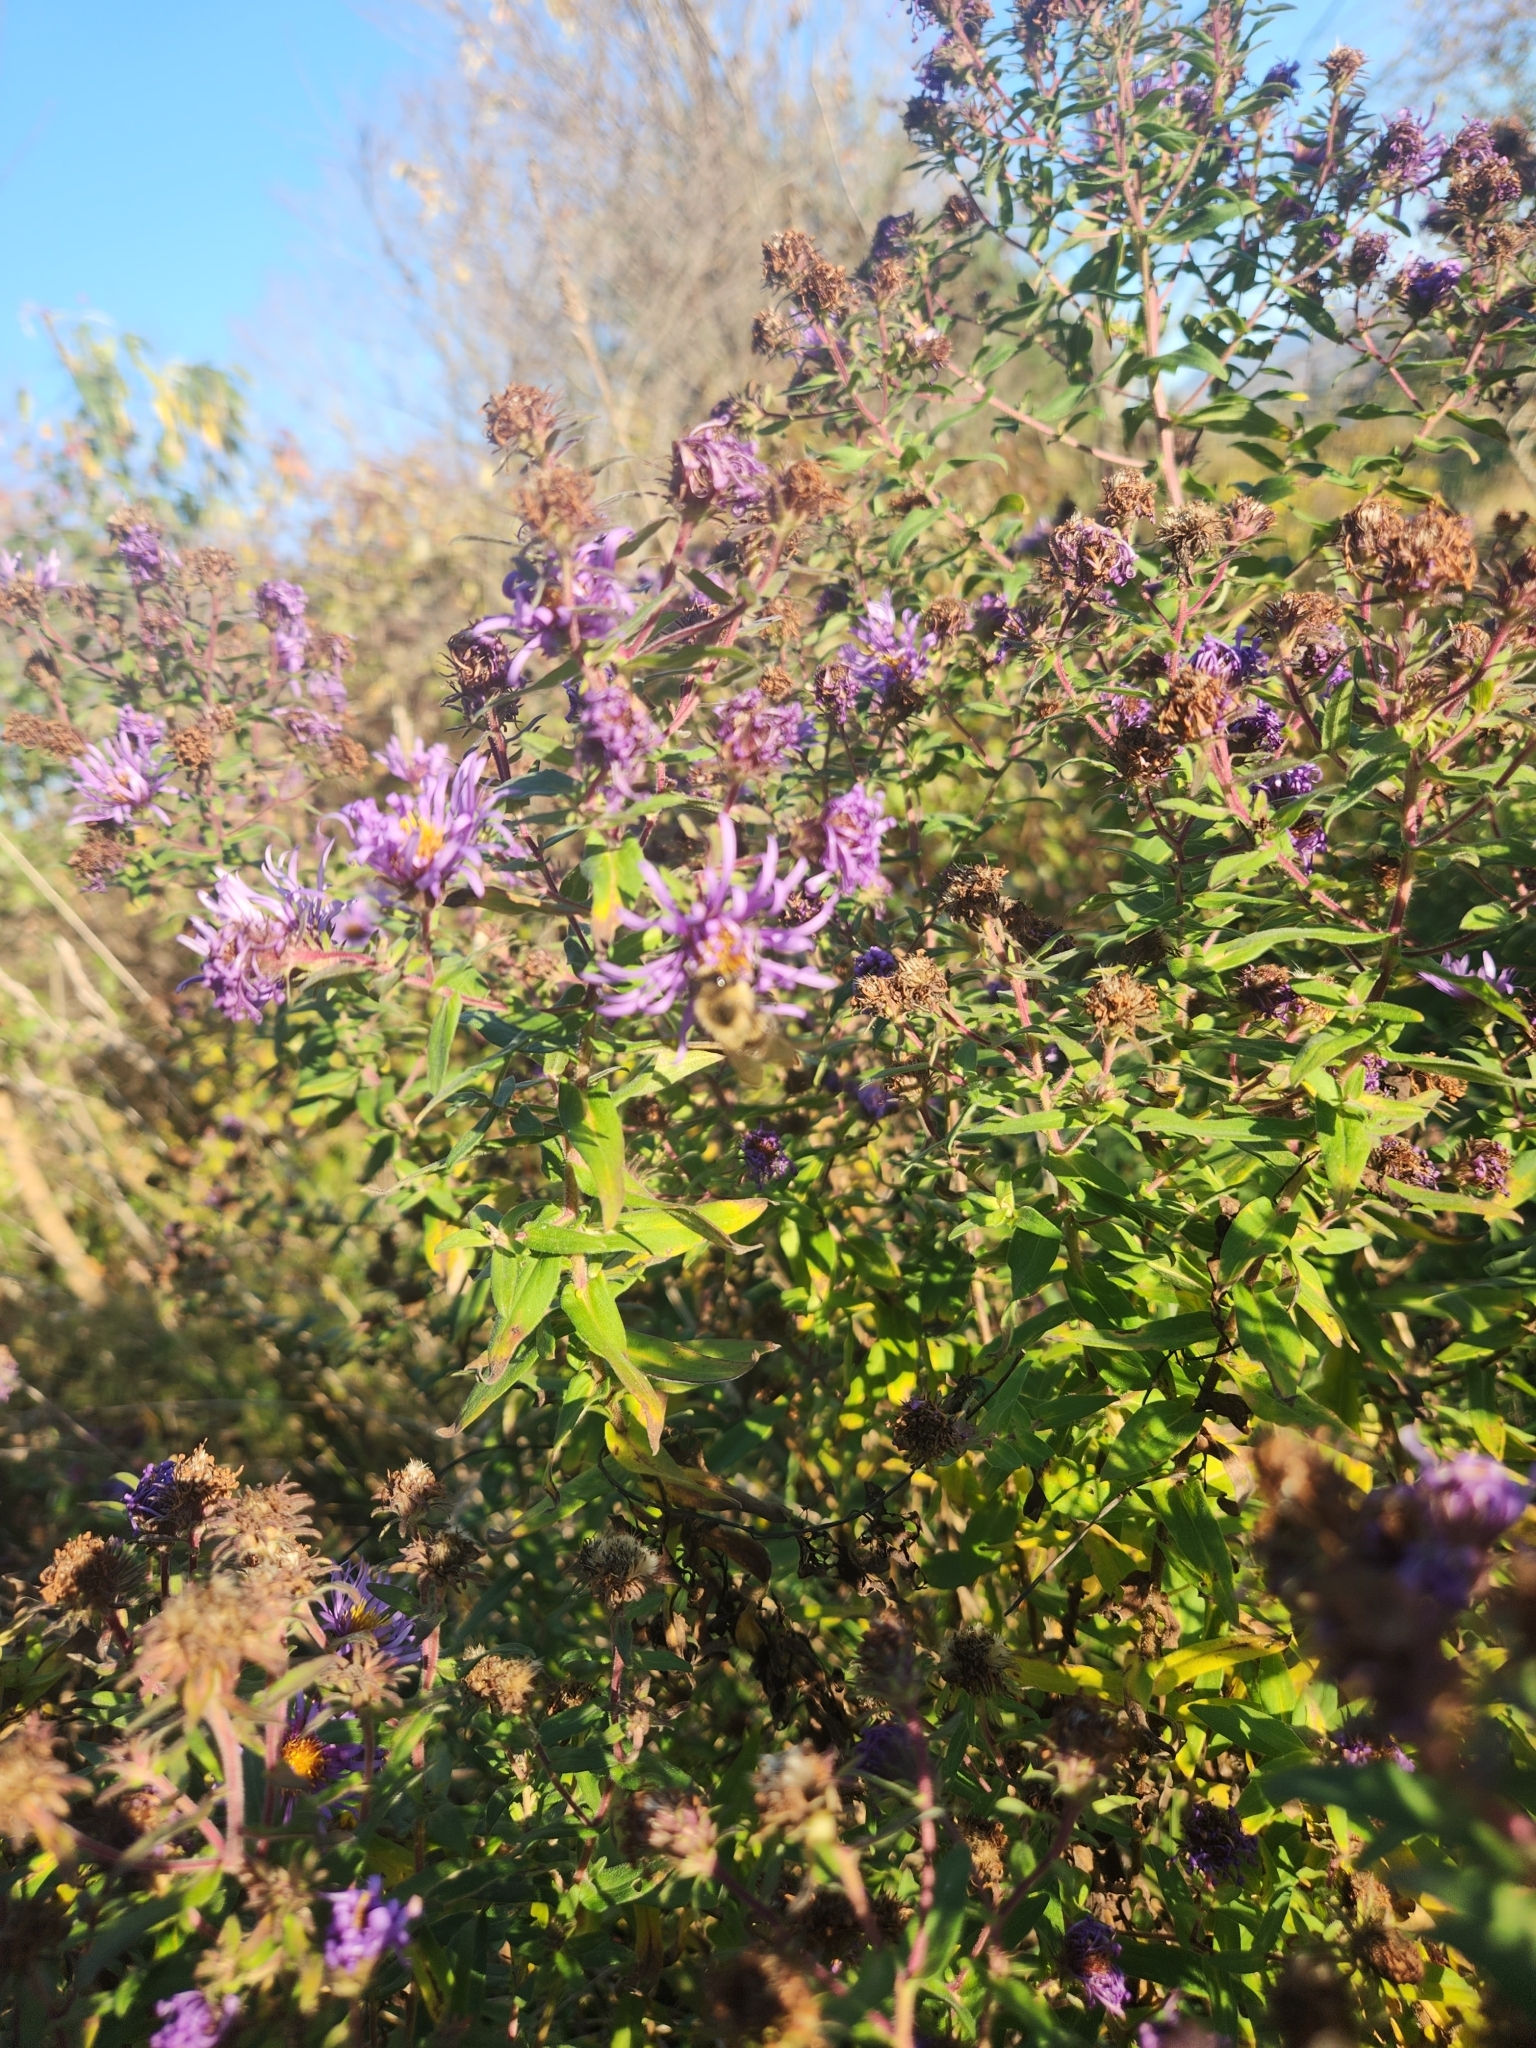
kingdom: Animalia
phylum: Arthropoda
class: Insecta
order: Hymenoptera
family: Apidae
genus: Bombus
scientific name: Bombus impatiens
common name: Common eastern bumble bee
